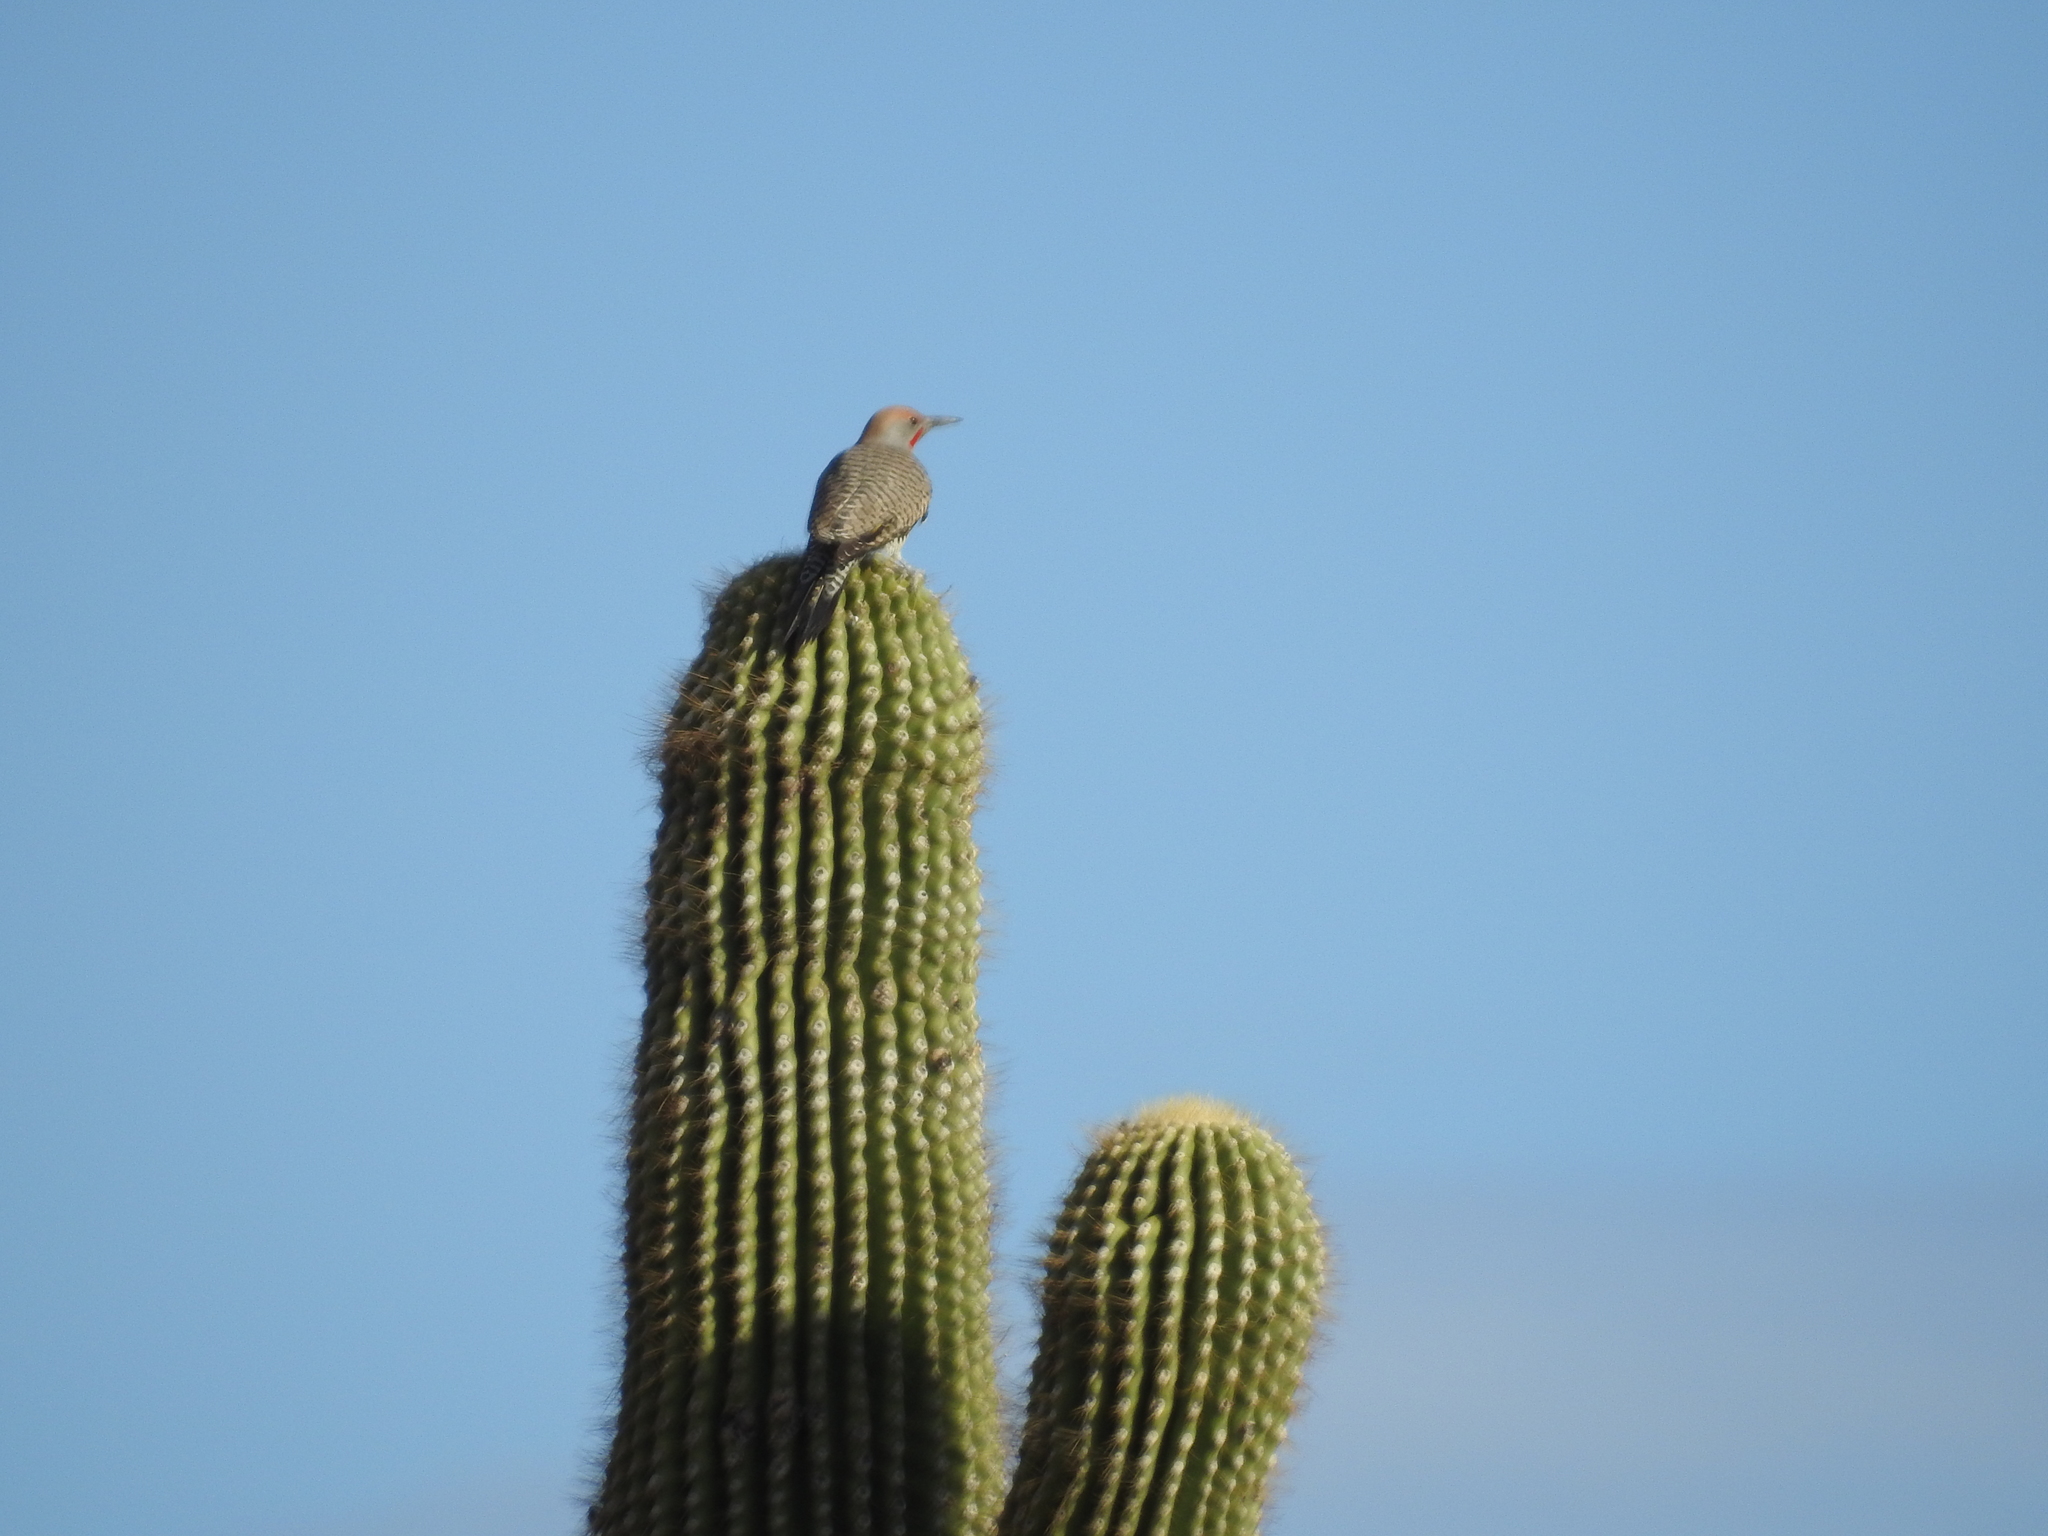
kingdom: Animalia
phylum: Chordata
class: Aves
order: Piciformes
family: Picidae
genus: Colaptes
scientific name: Colaptes chrysoides
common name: Gilded flicker
